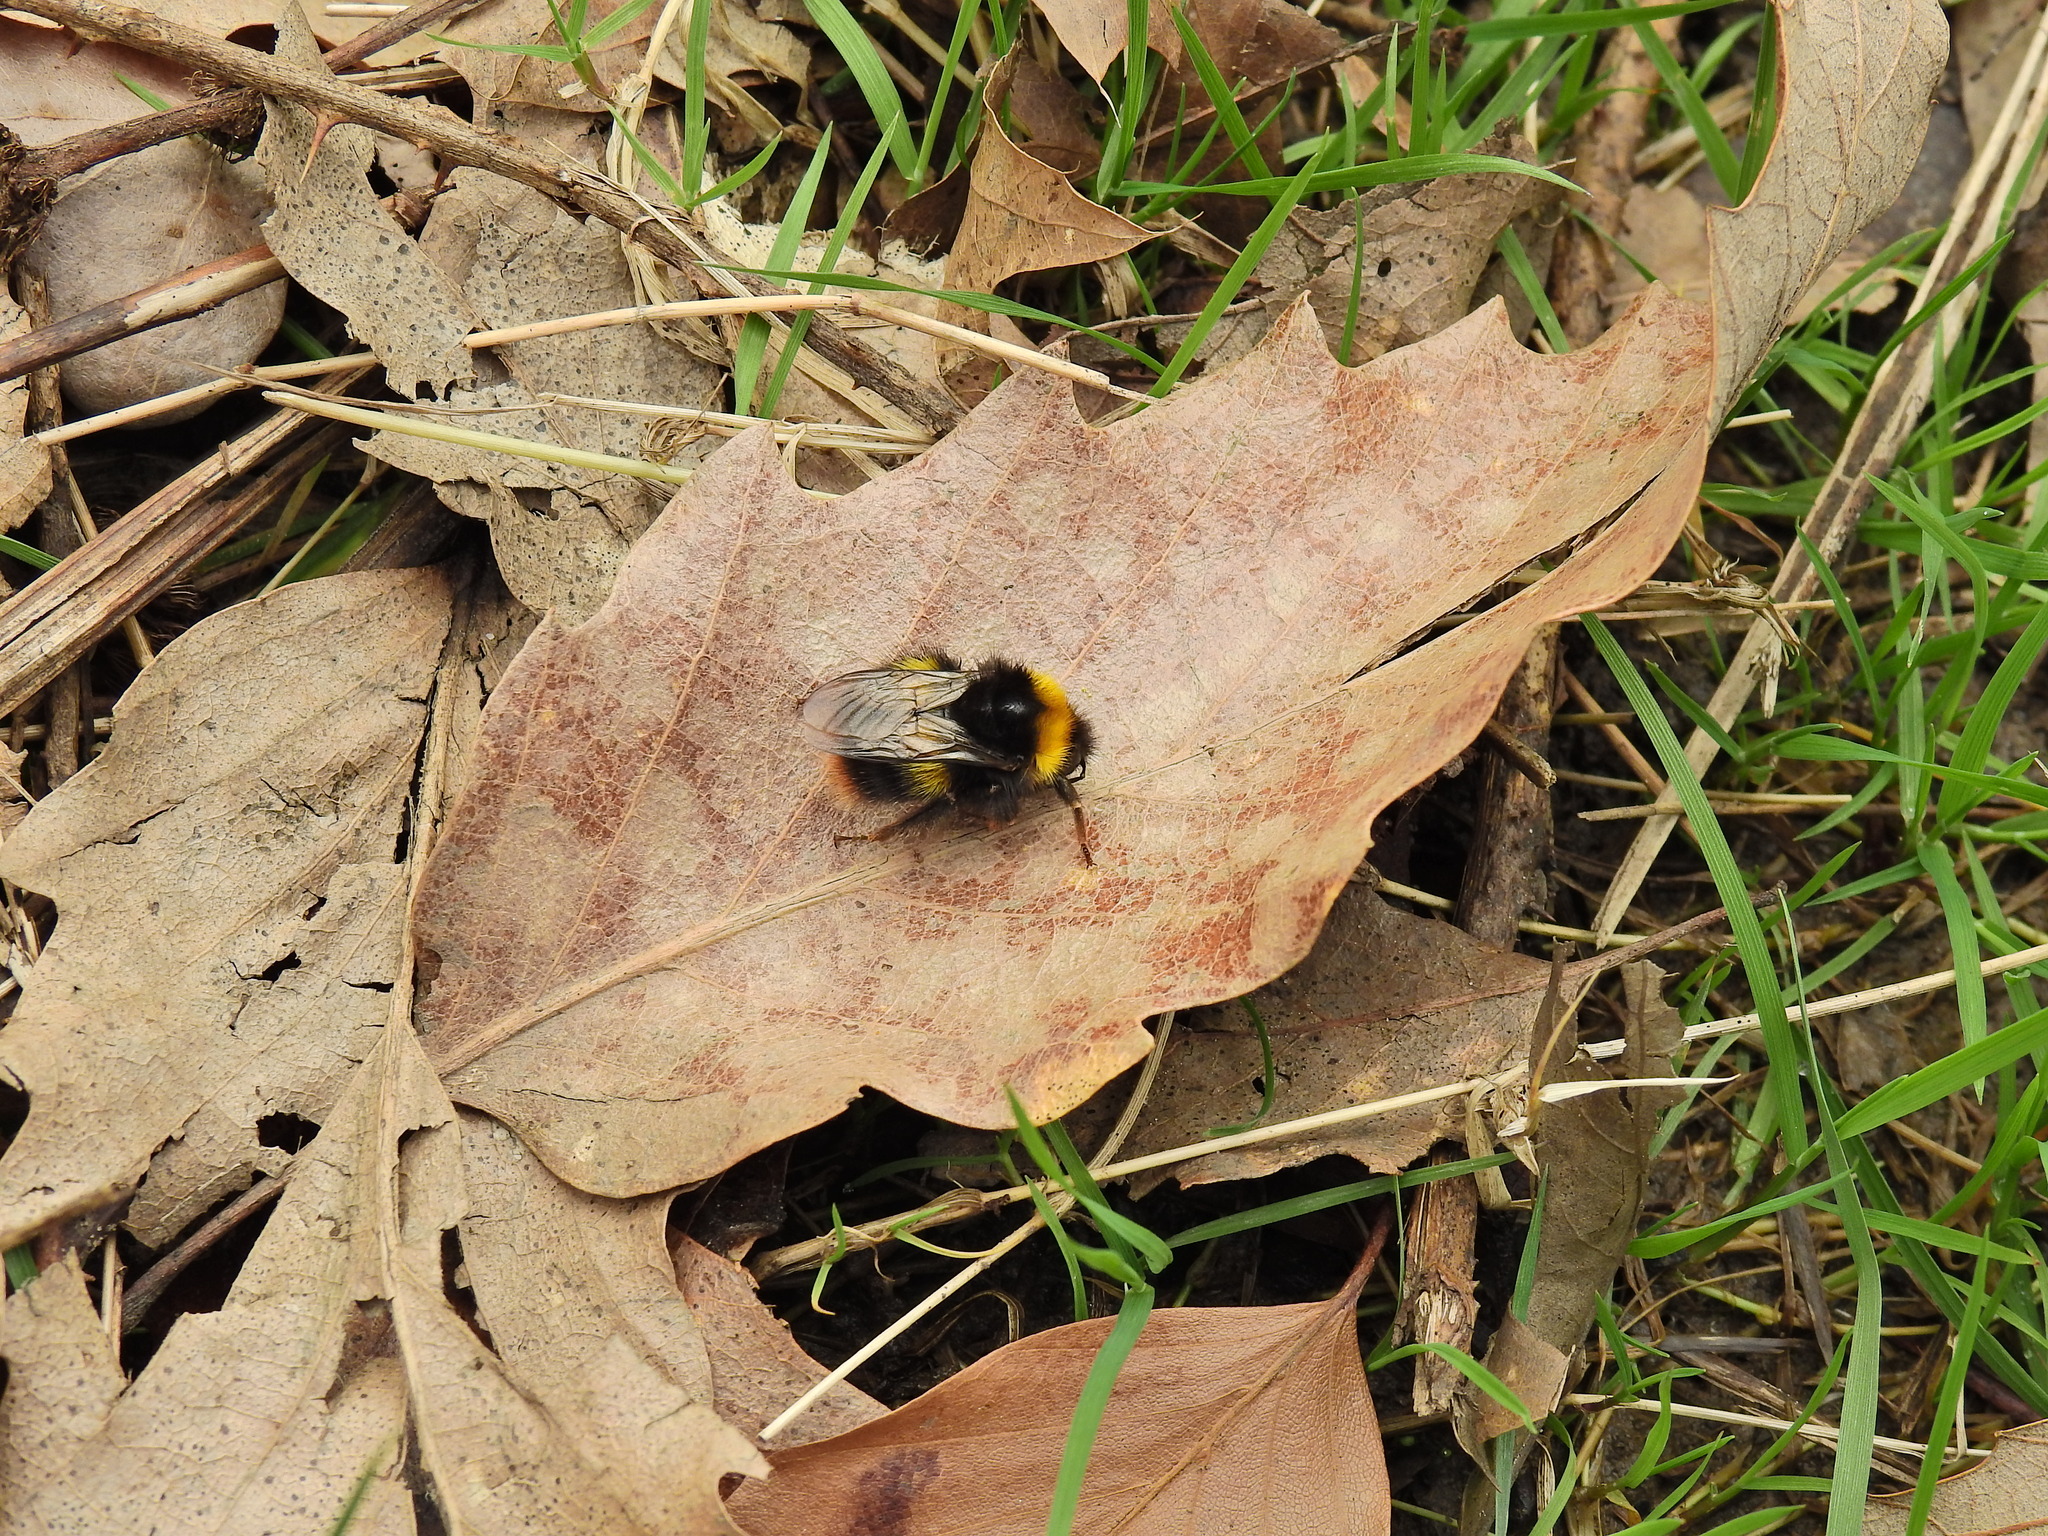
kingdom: Animalia
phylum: Arthropoda
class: Insecta
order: Hymenoptera
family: Apidae
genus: Bombus
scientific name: Bombus pratorum
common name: Early humble-bee
